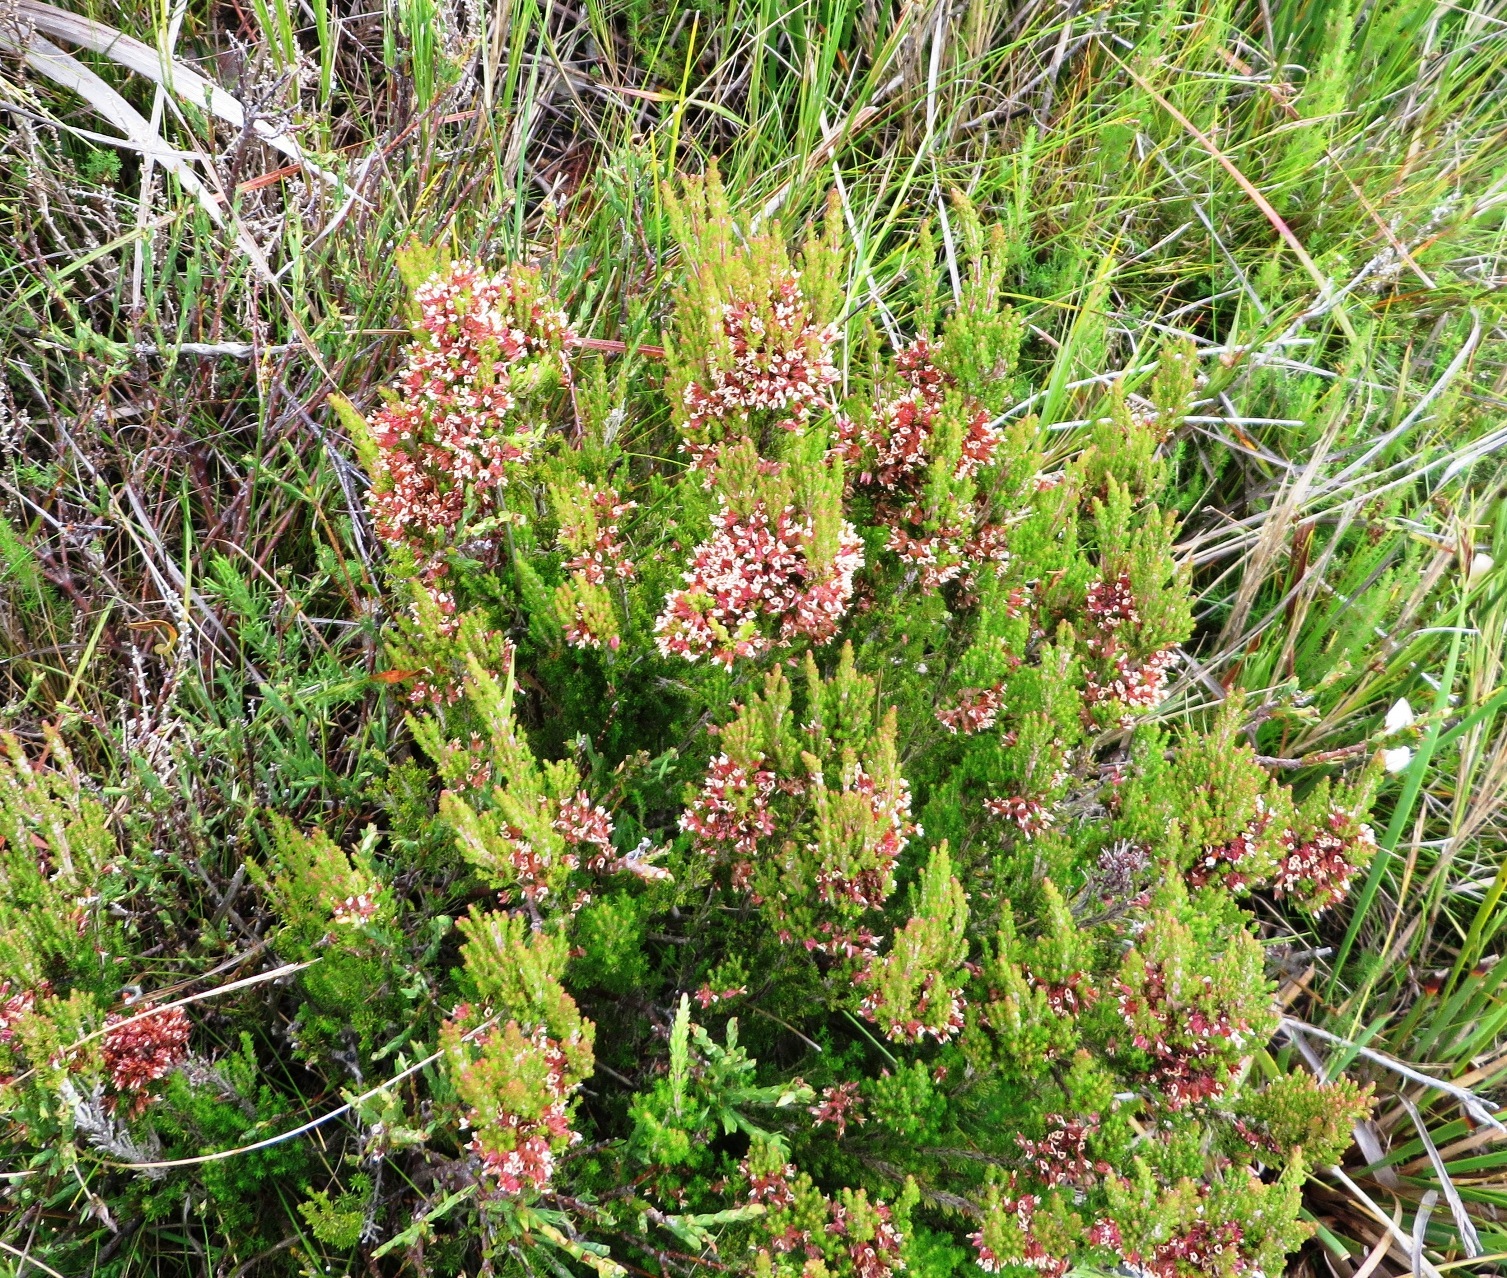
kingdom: Plantae
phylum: Tracheophyta
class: Magnoliopsida
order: Ericales
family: Ericaceae
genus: Erica
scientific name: Erica
